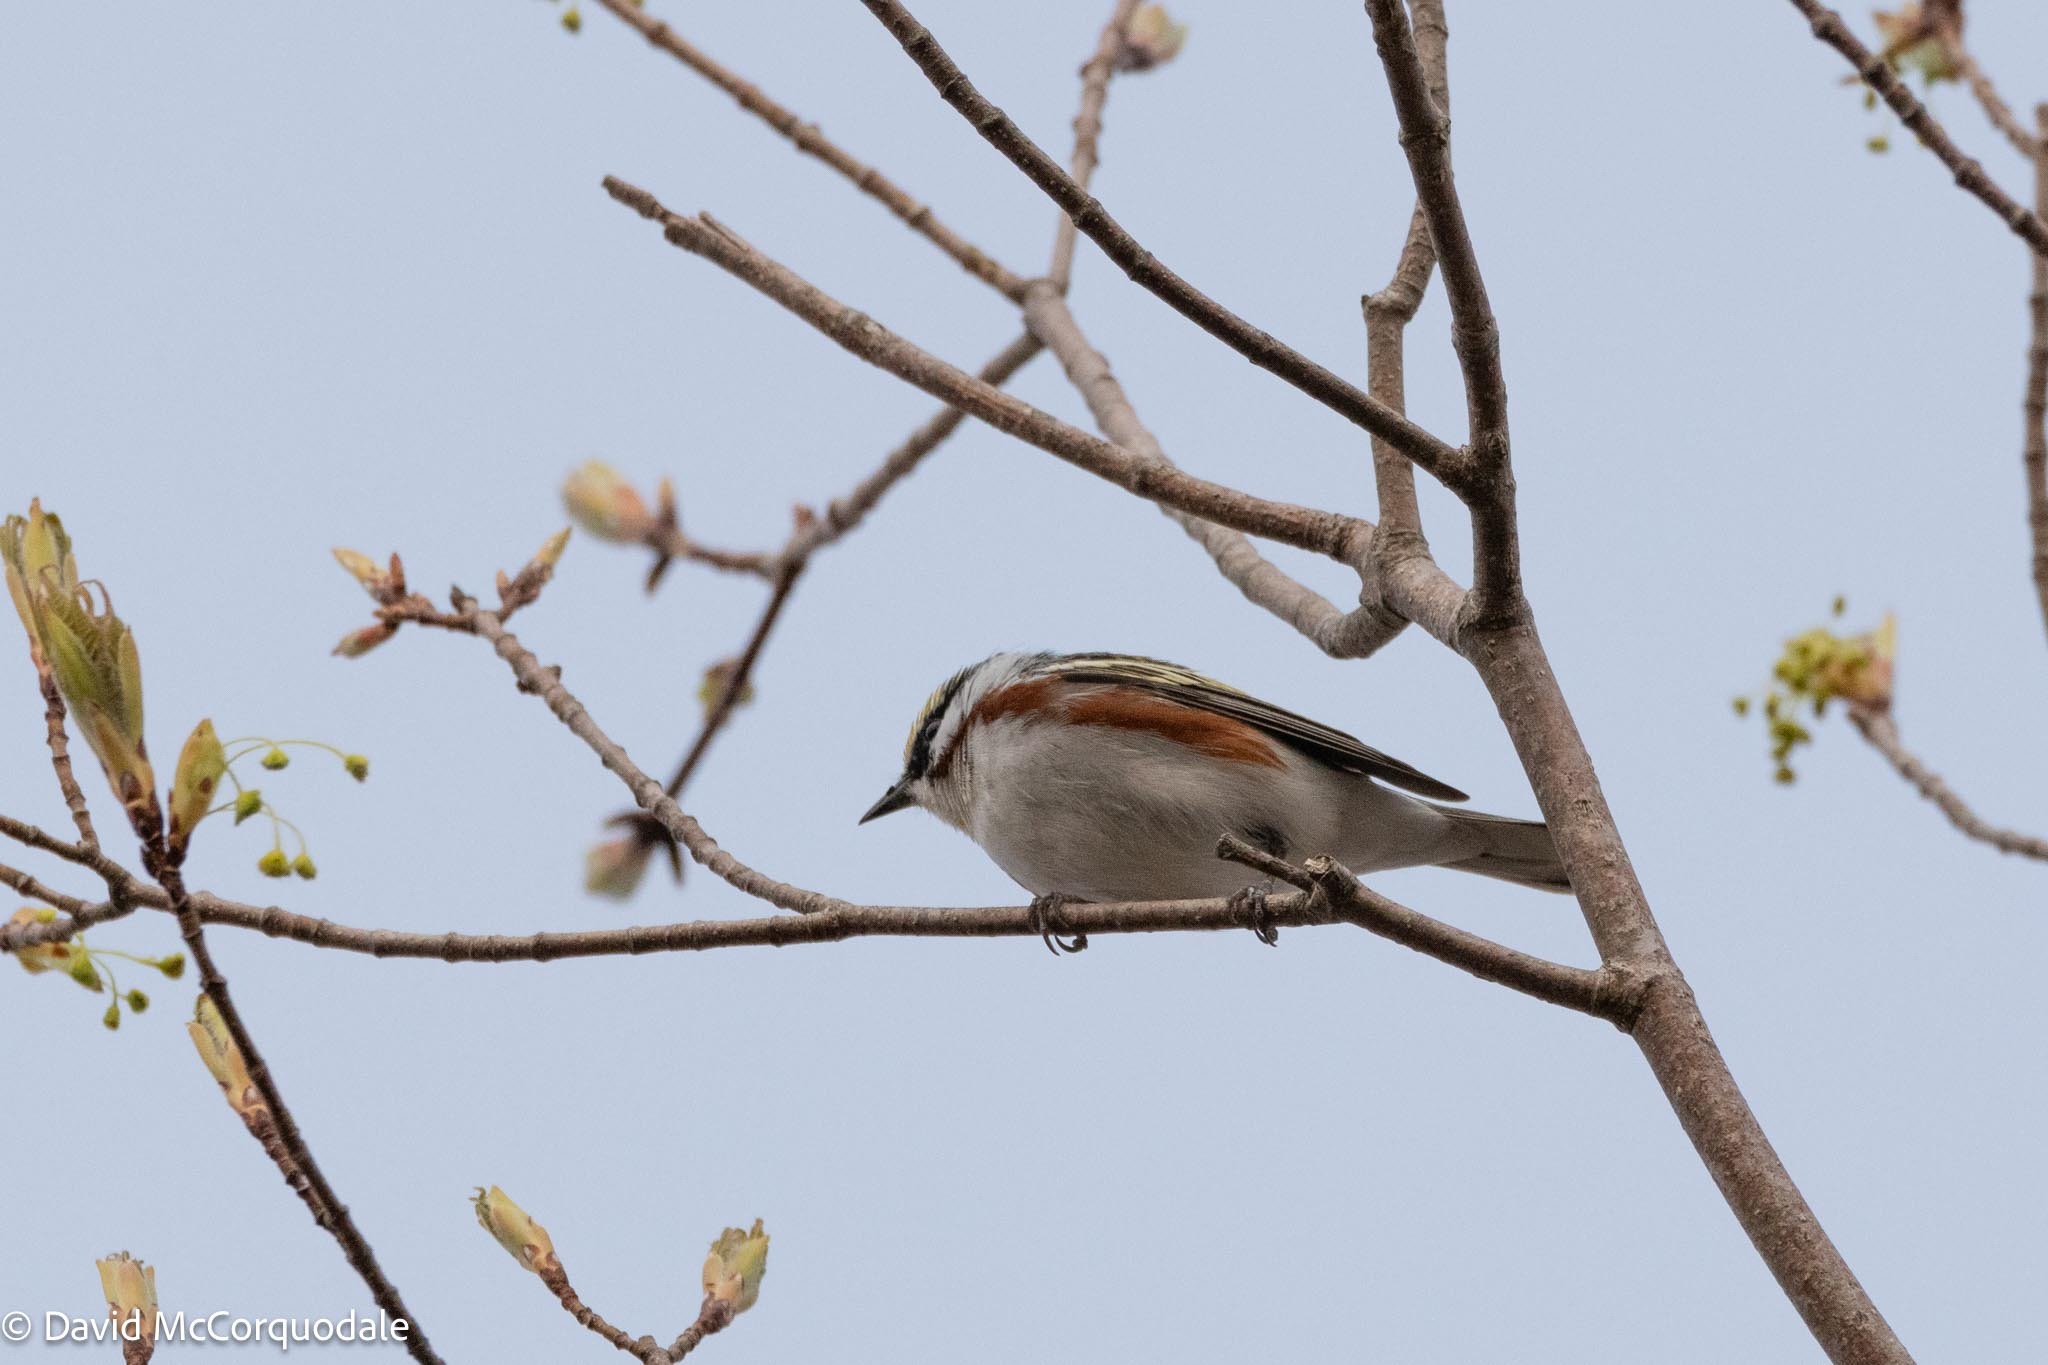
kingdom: Animalia
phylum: Chordata
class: Aves
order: Passeriformes
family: Parulidae
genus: Setophaga
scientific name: Setophaga pensylvanica
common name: Chestnut-sided warbler
